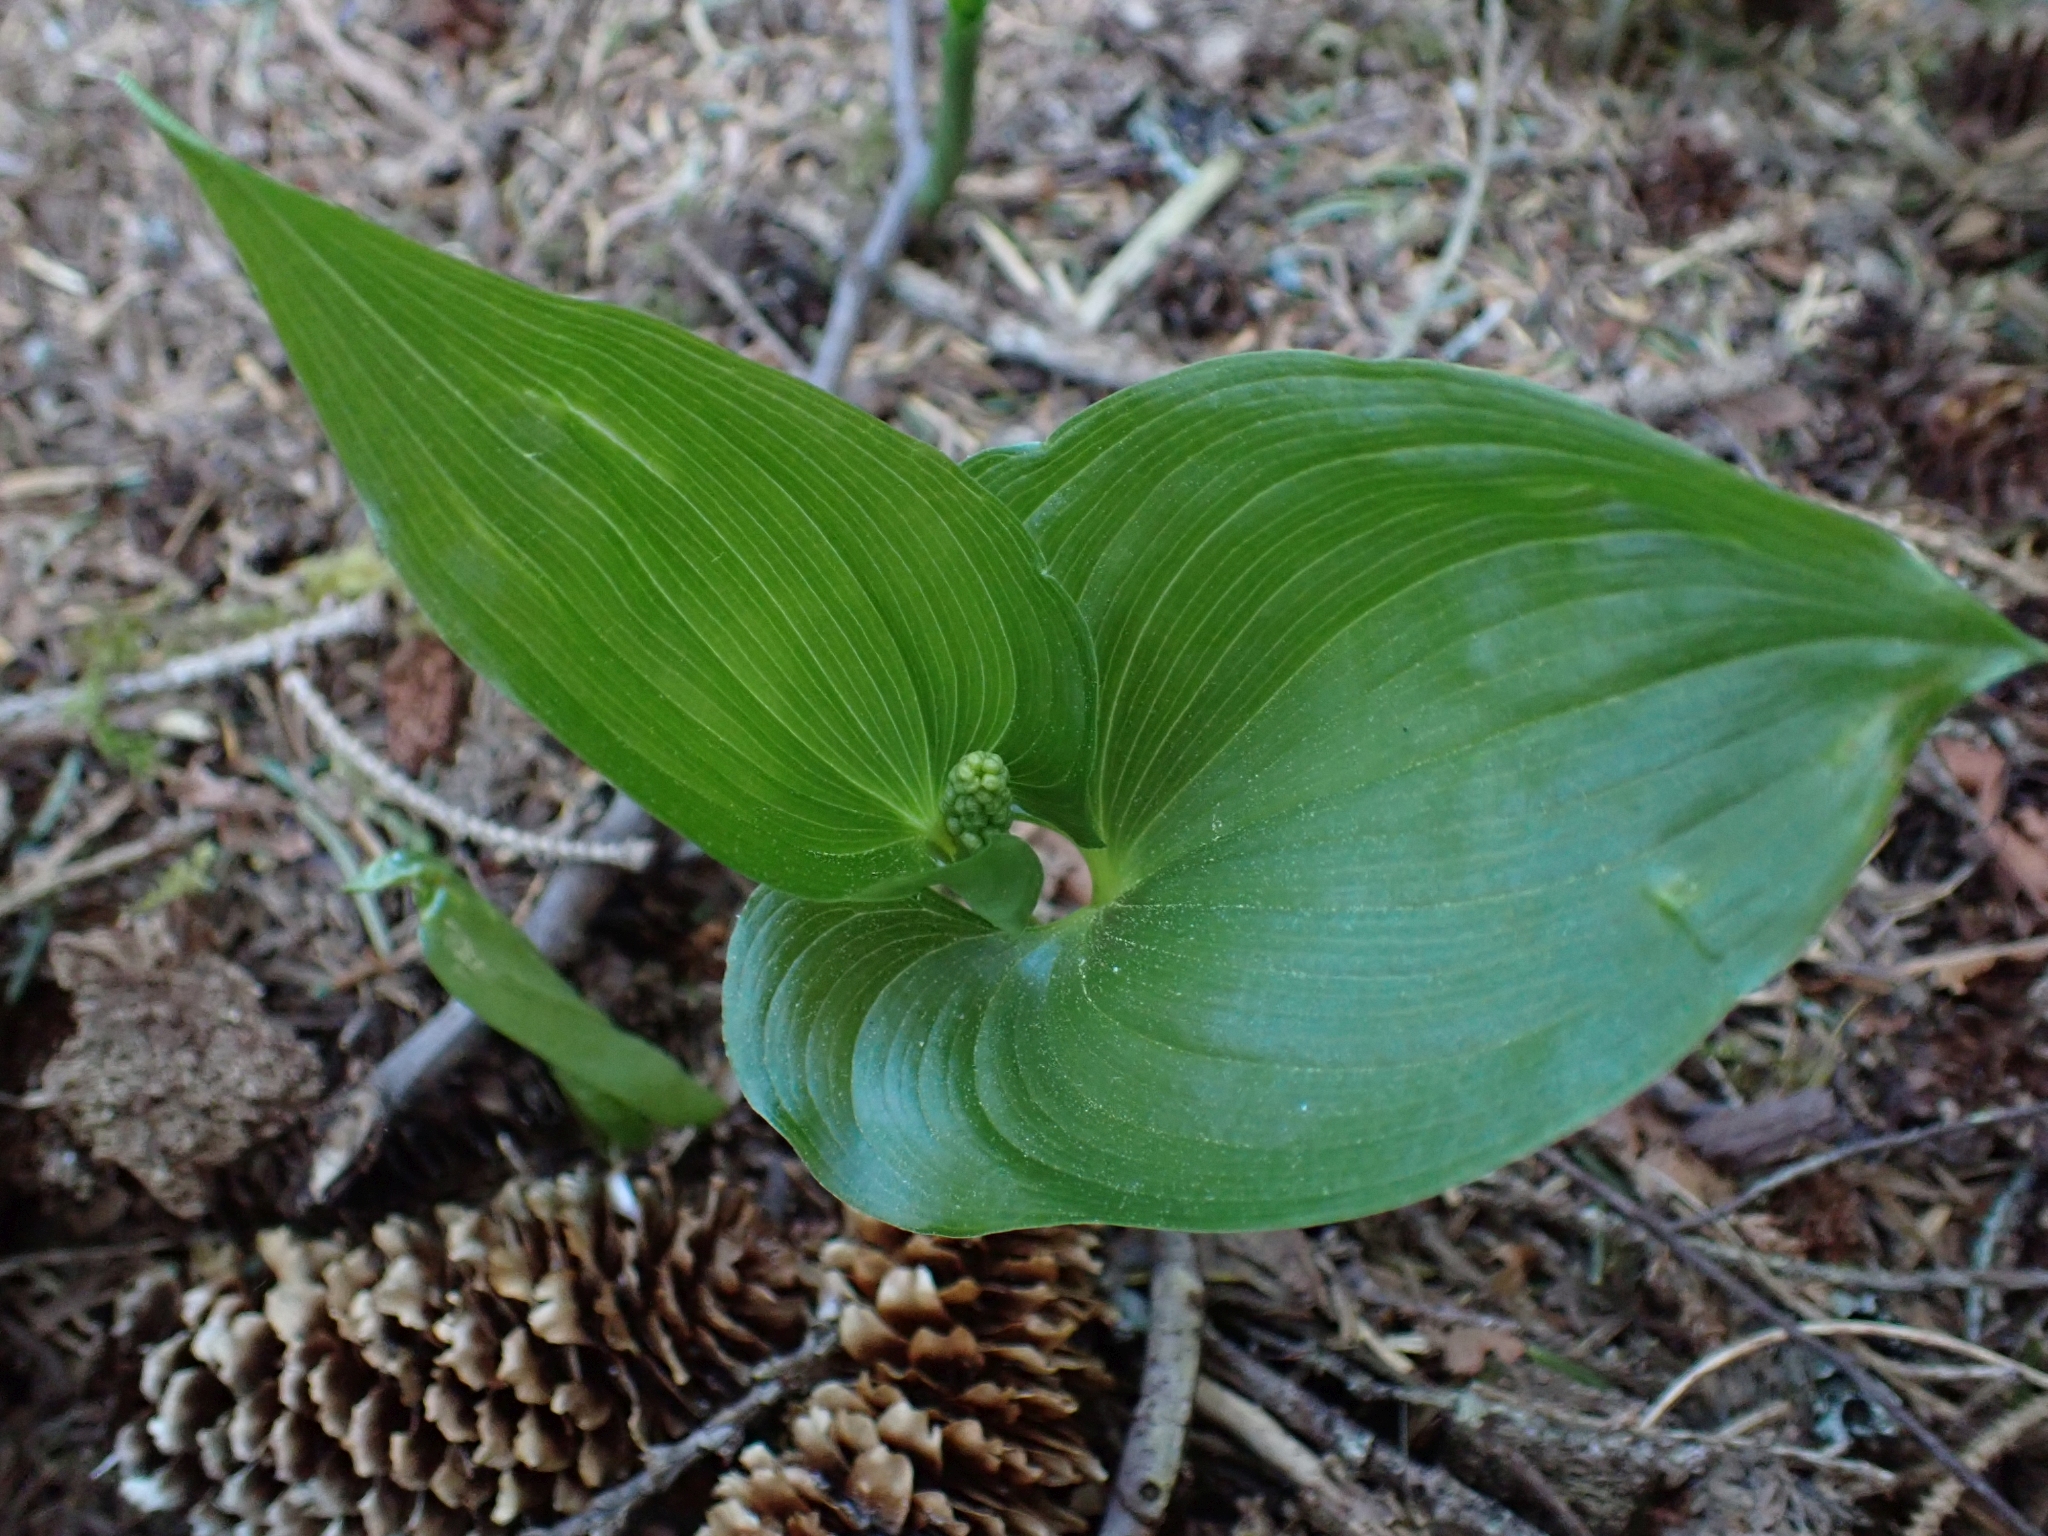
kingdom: Plantae
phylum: Tracheophyta
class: Liliopsida
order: Asparagales
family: Asparagaceae
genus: Maianthemum
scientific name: Maianthemum dilatatum
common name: False lily-of-the-valley
